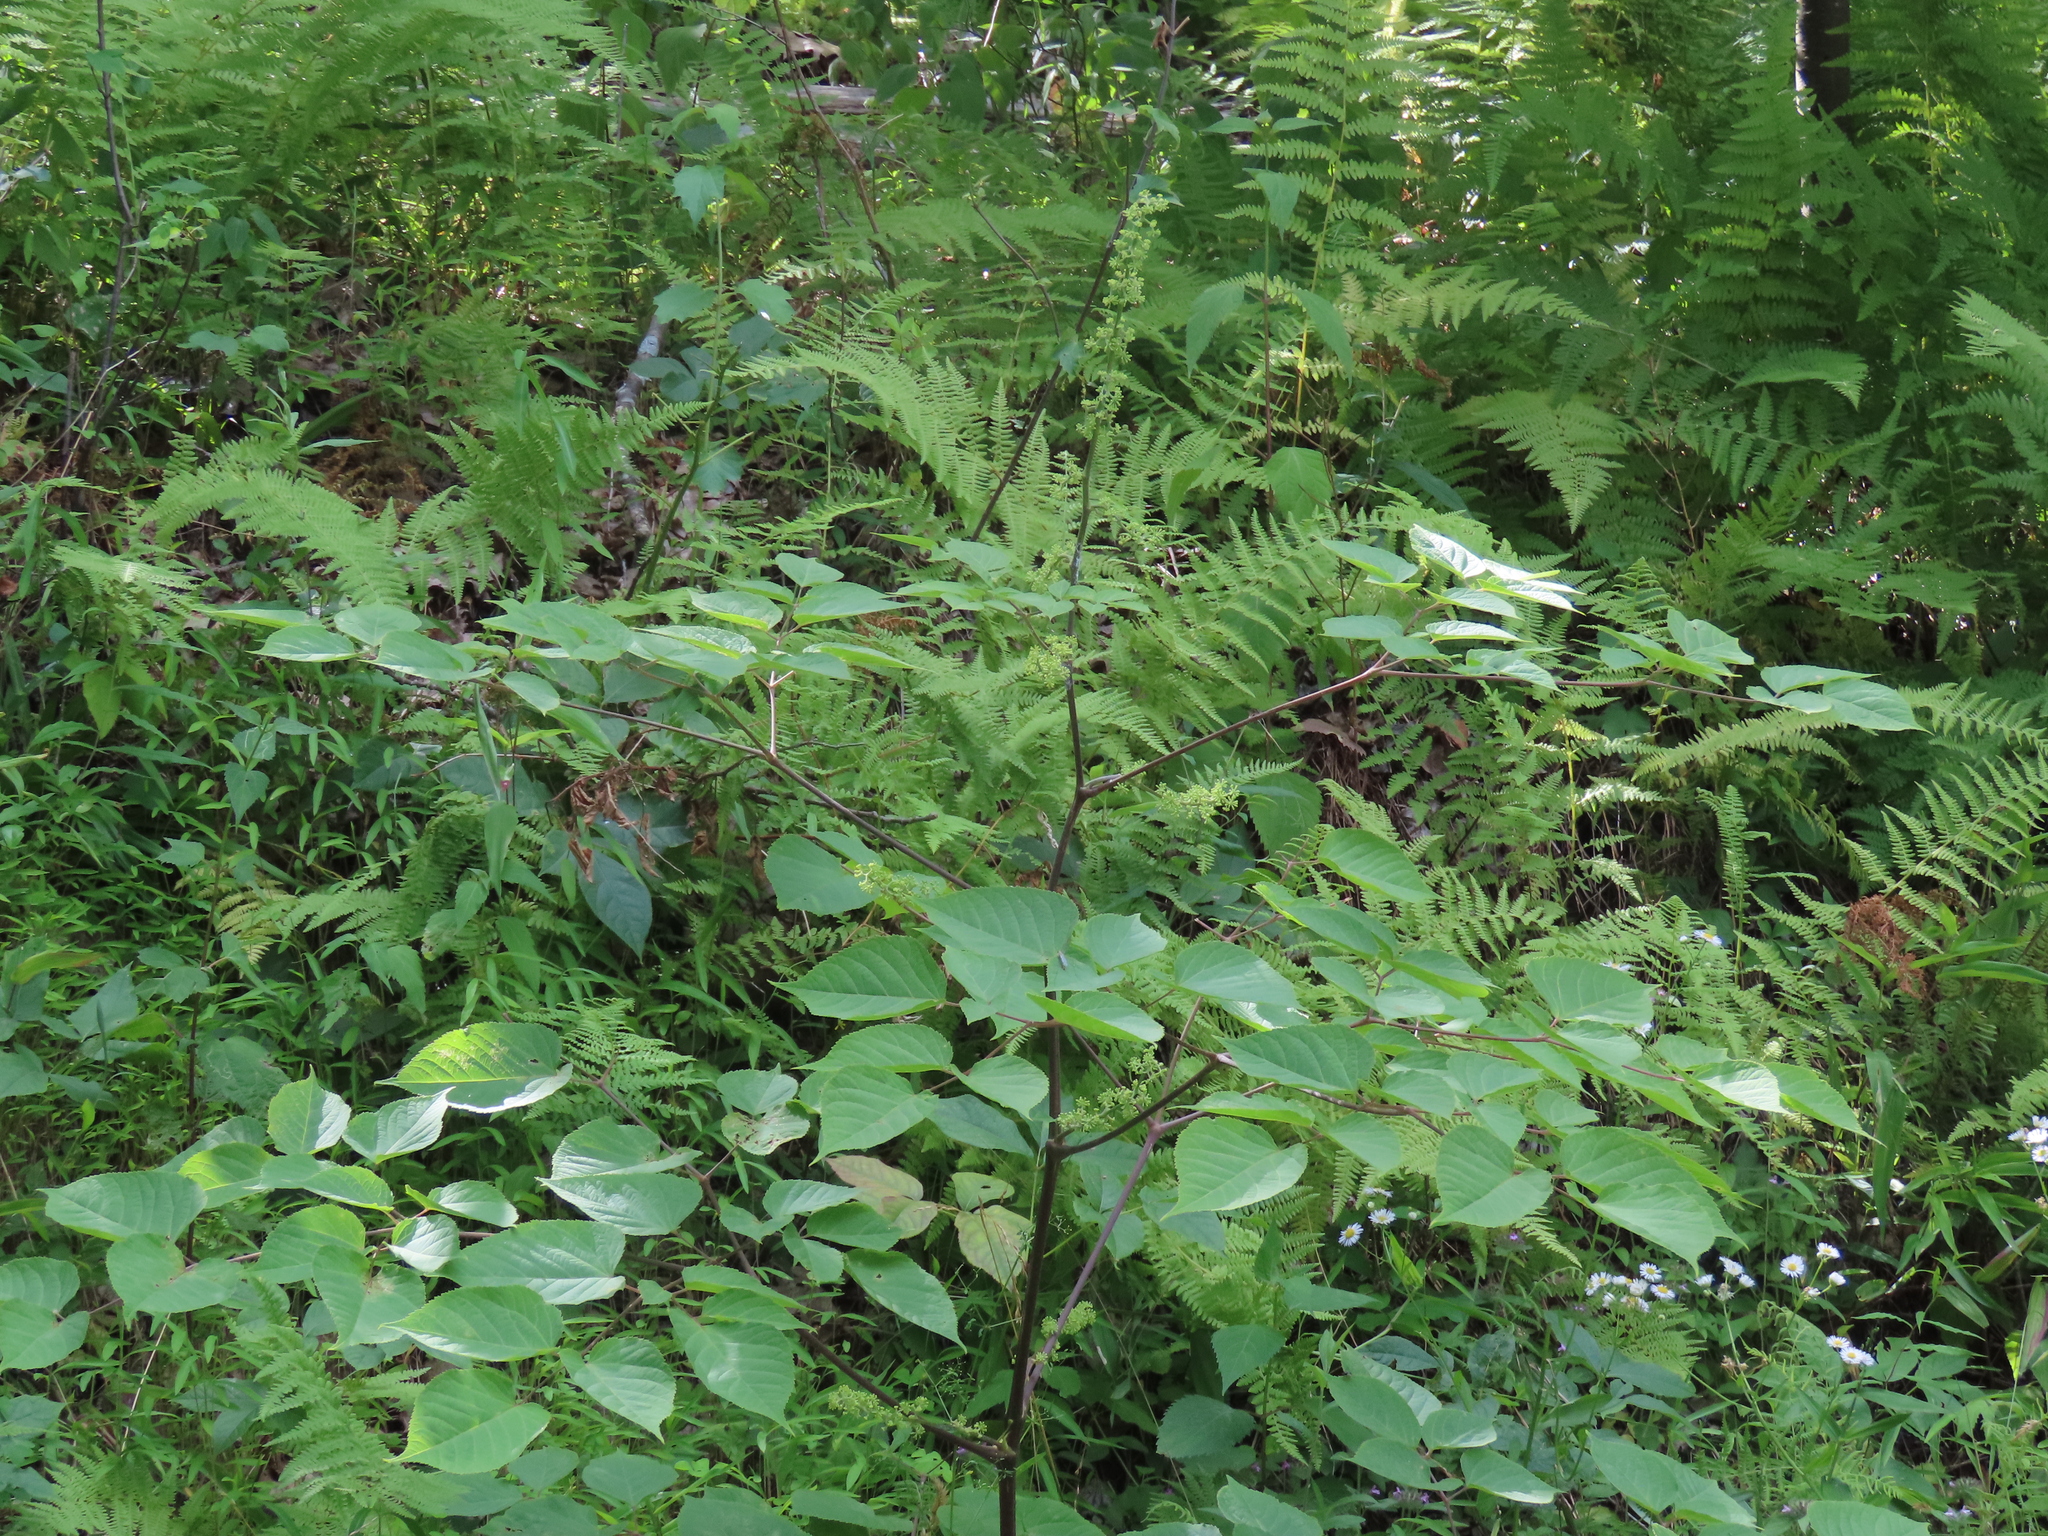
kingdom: Plantae
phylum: Tracheophyta
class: Magnoliopsida
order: Apiales
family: Araliaceae
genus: Aralia
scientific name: Aralia racemosa
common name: American-spikenard
